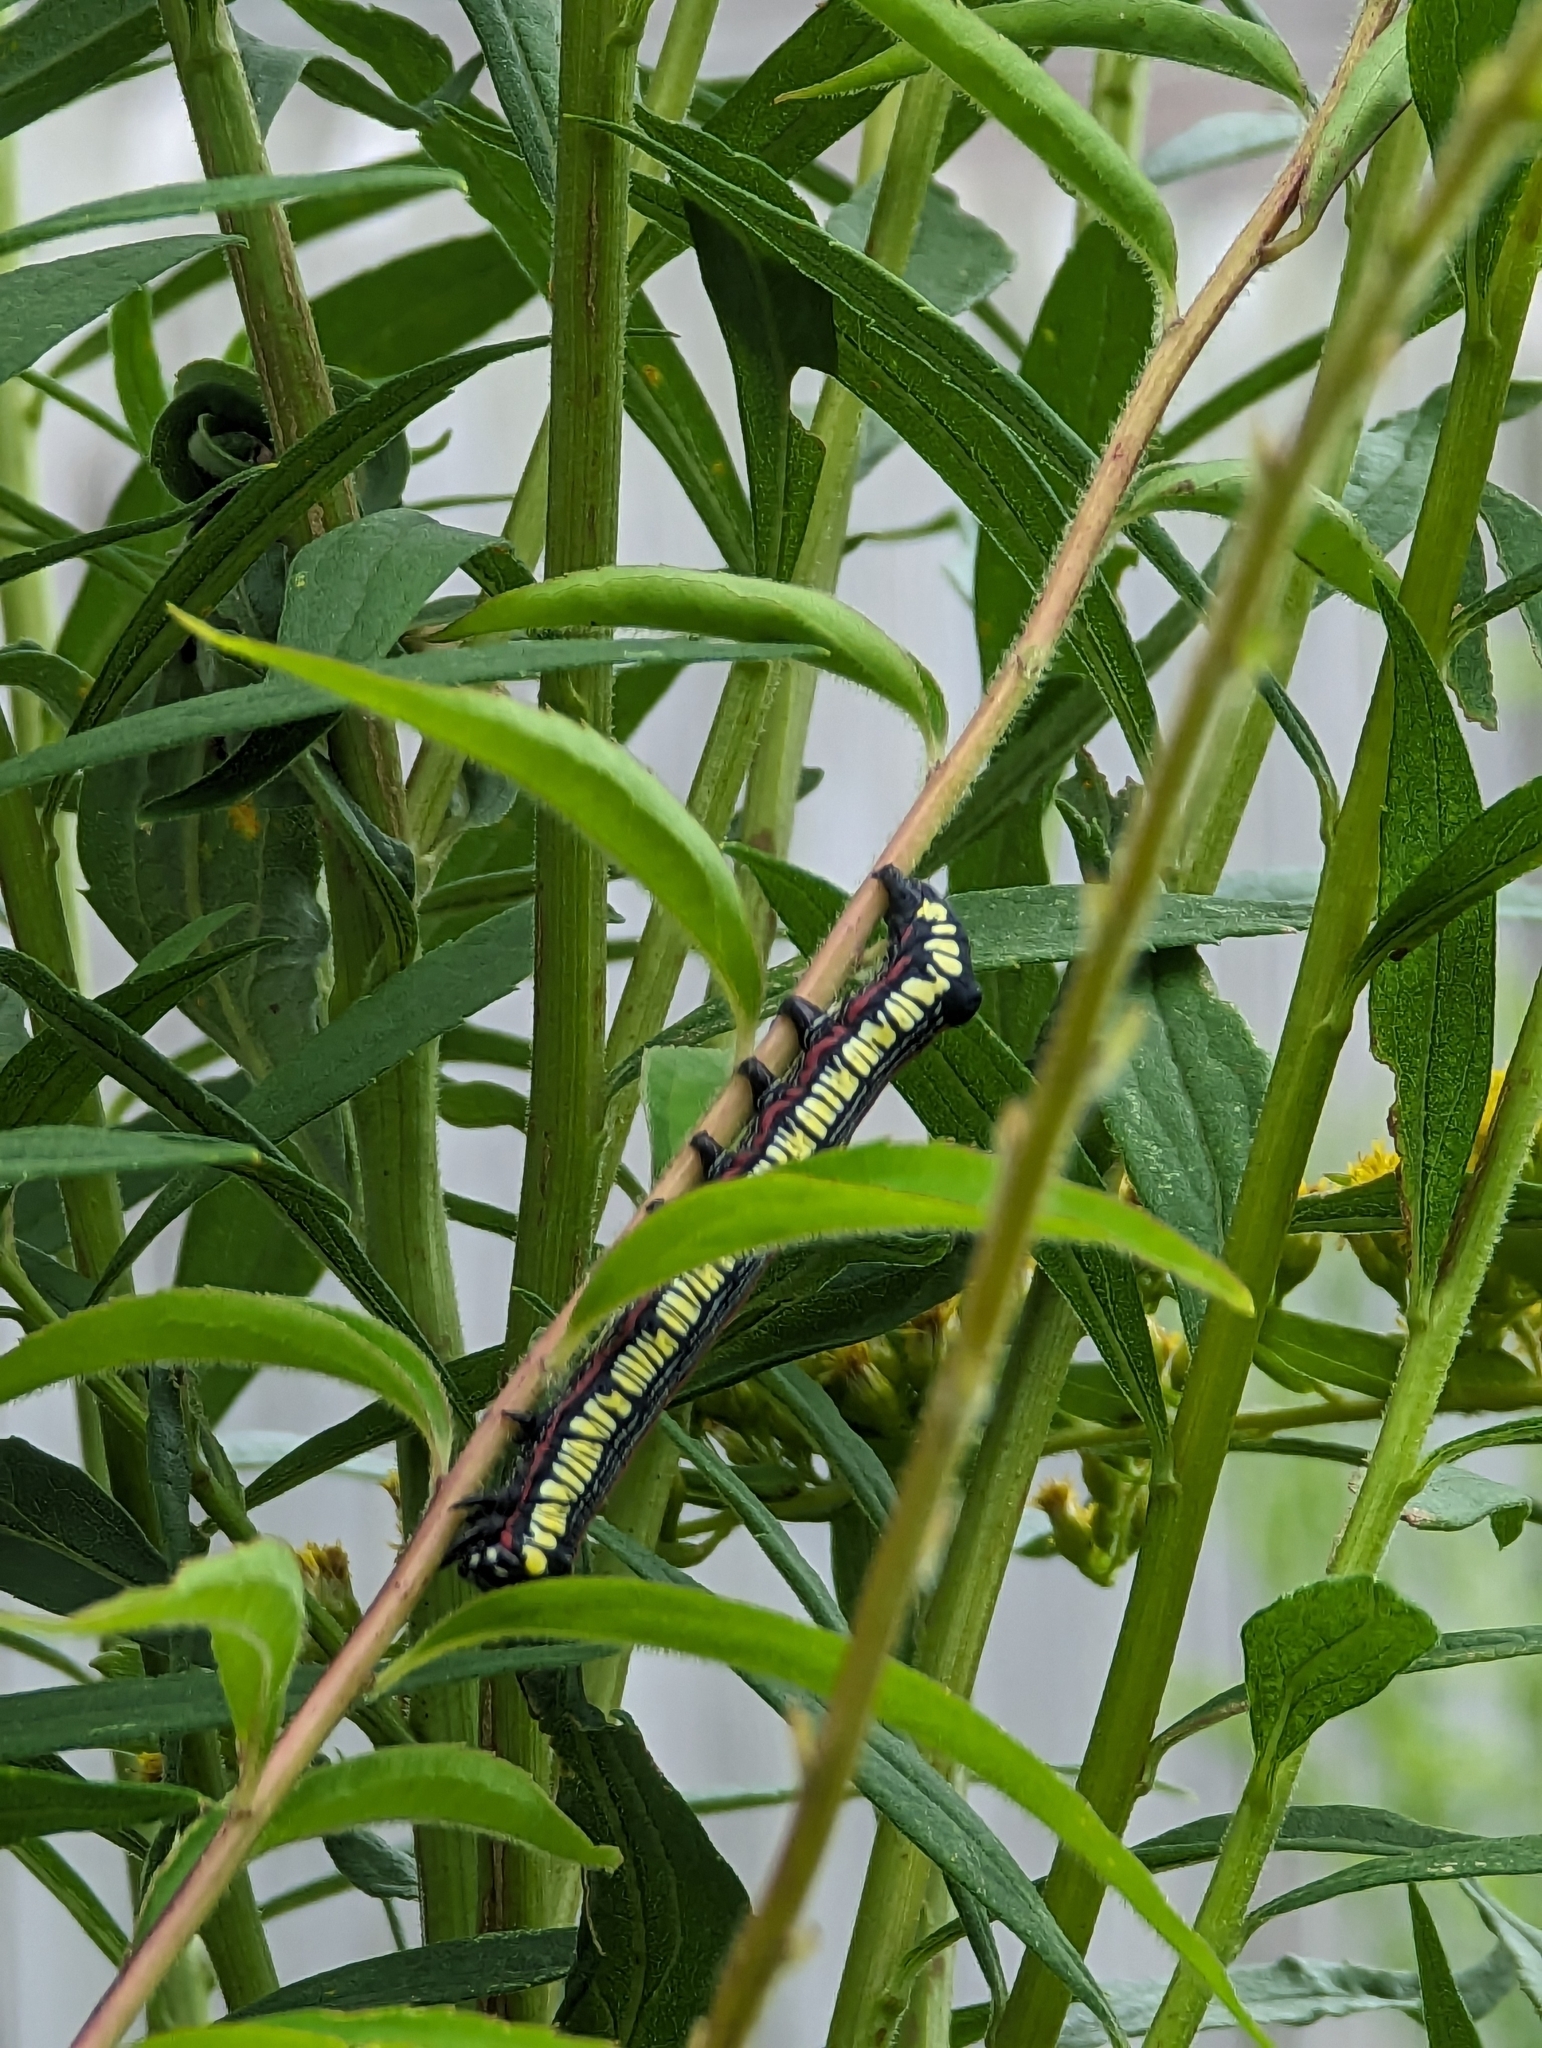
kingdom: Animalia
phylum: Arthropoda
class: Insecta
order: Lepidoptera
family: Noctuidae
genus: Cucullia
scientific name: Cucullia convexipennis
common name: Brown-hooded owlet
